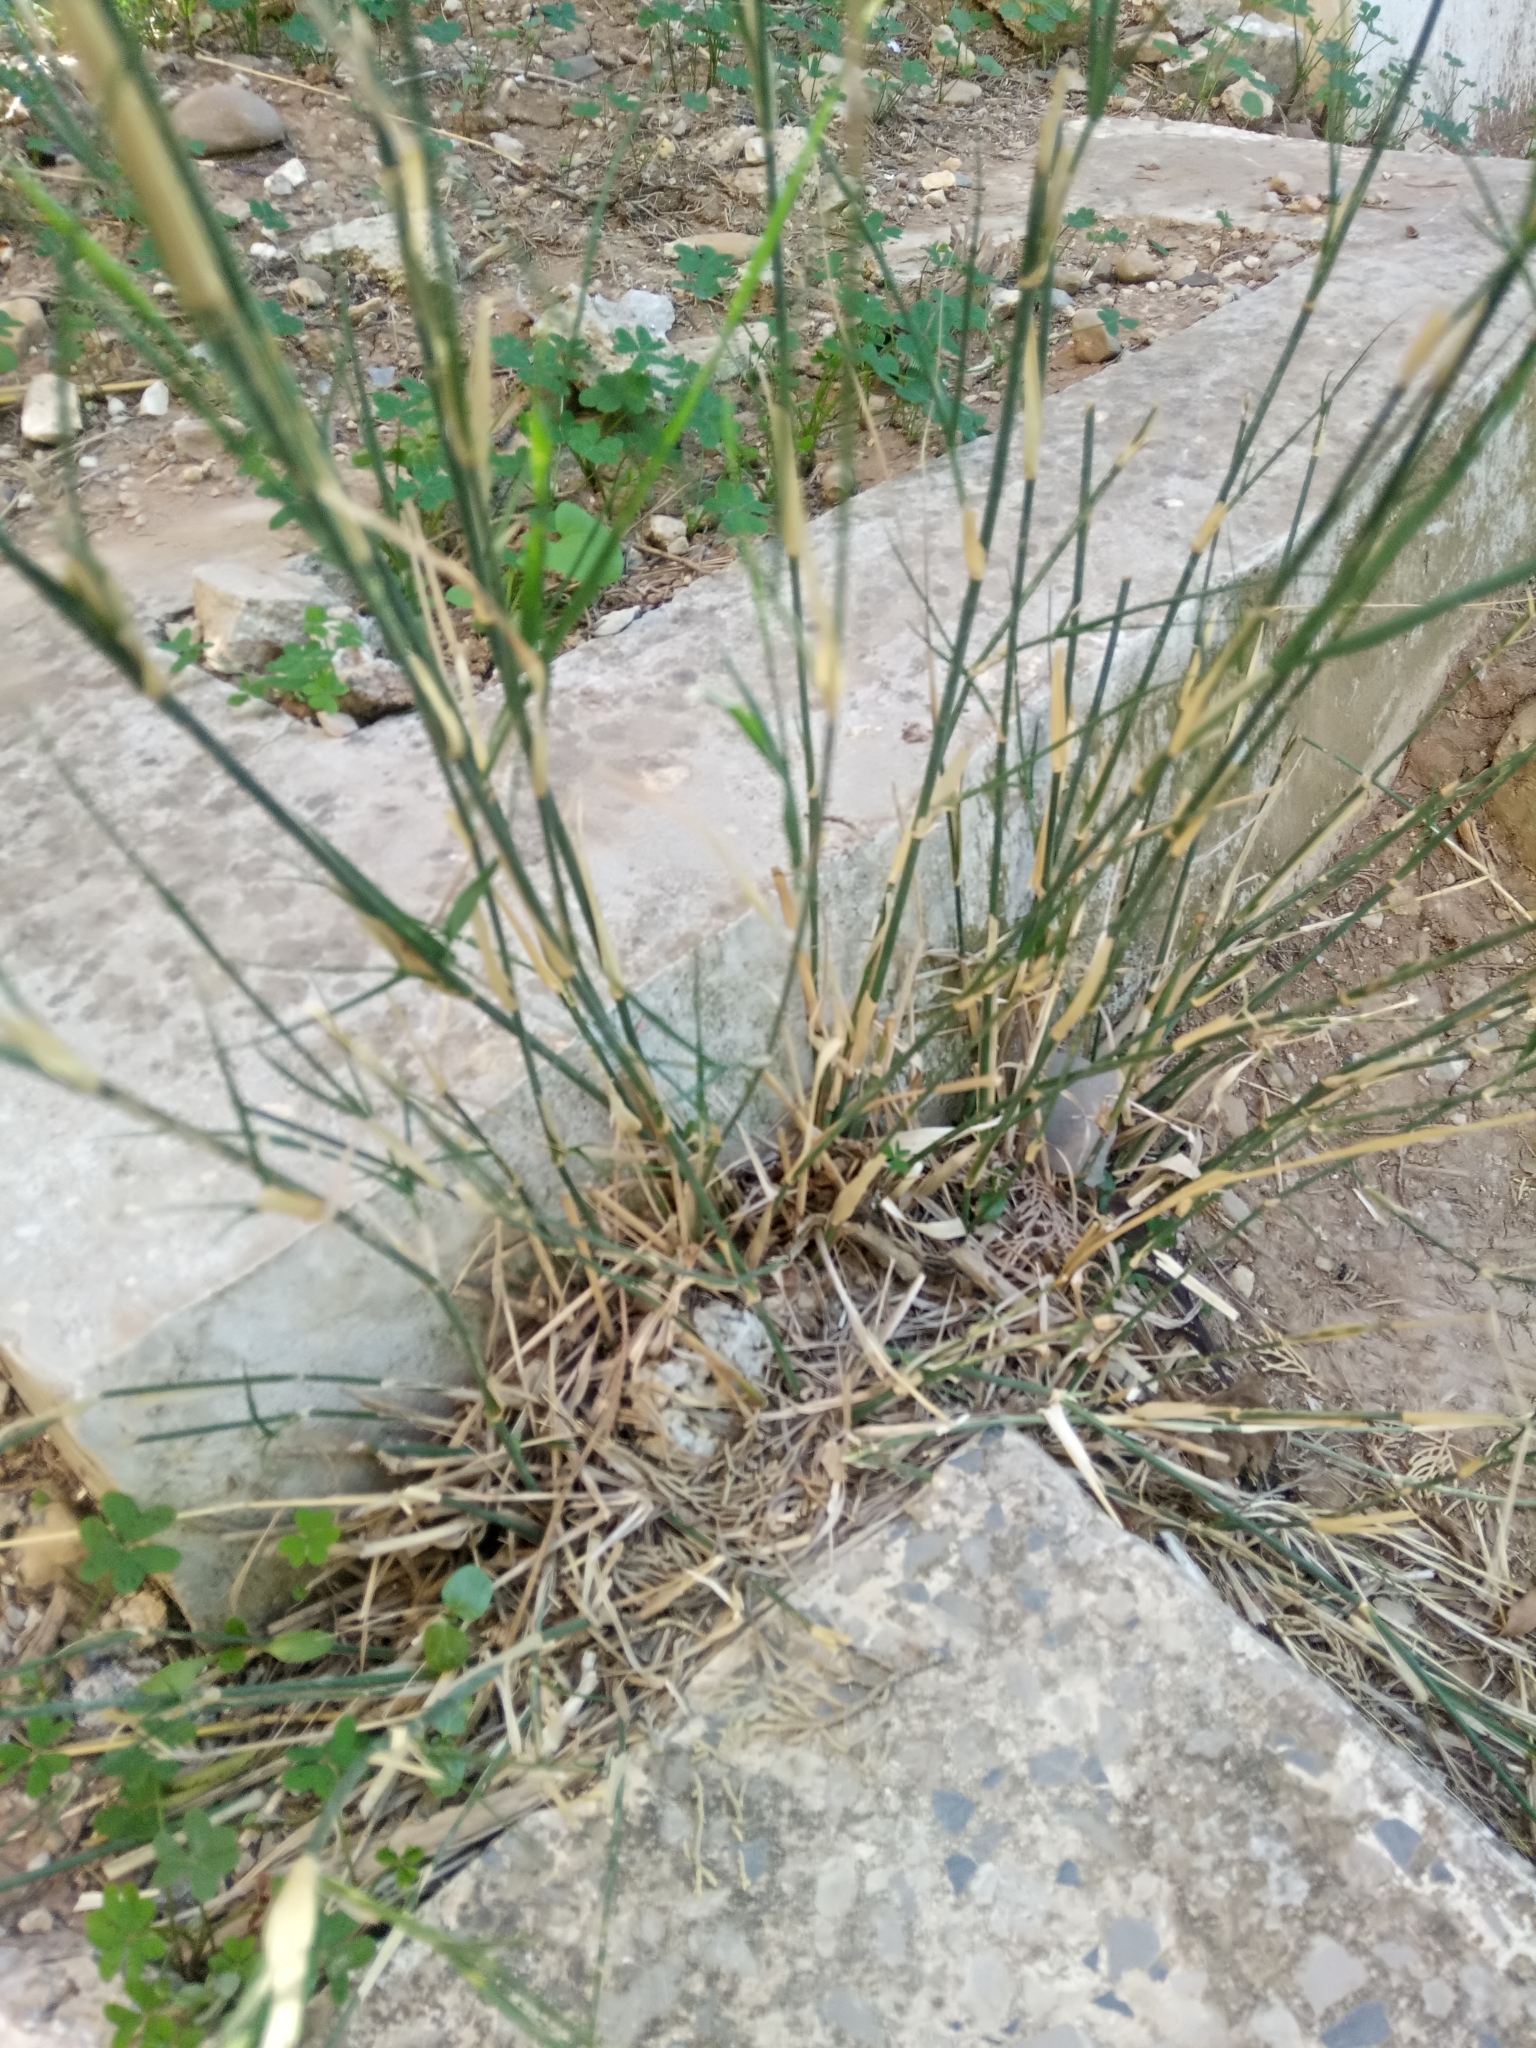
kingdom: Plantae
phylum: Tracheophyta
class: Liliopsida
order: Poales
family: Poaceae
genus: Oloptum
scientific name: Oloptum miliaceum
